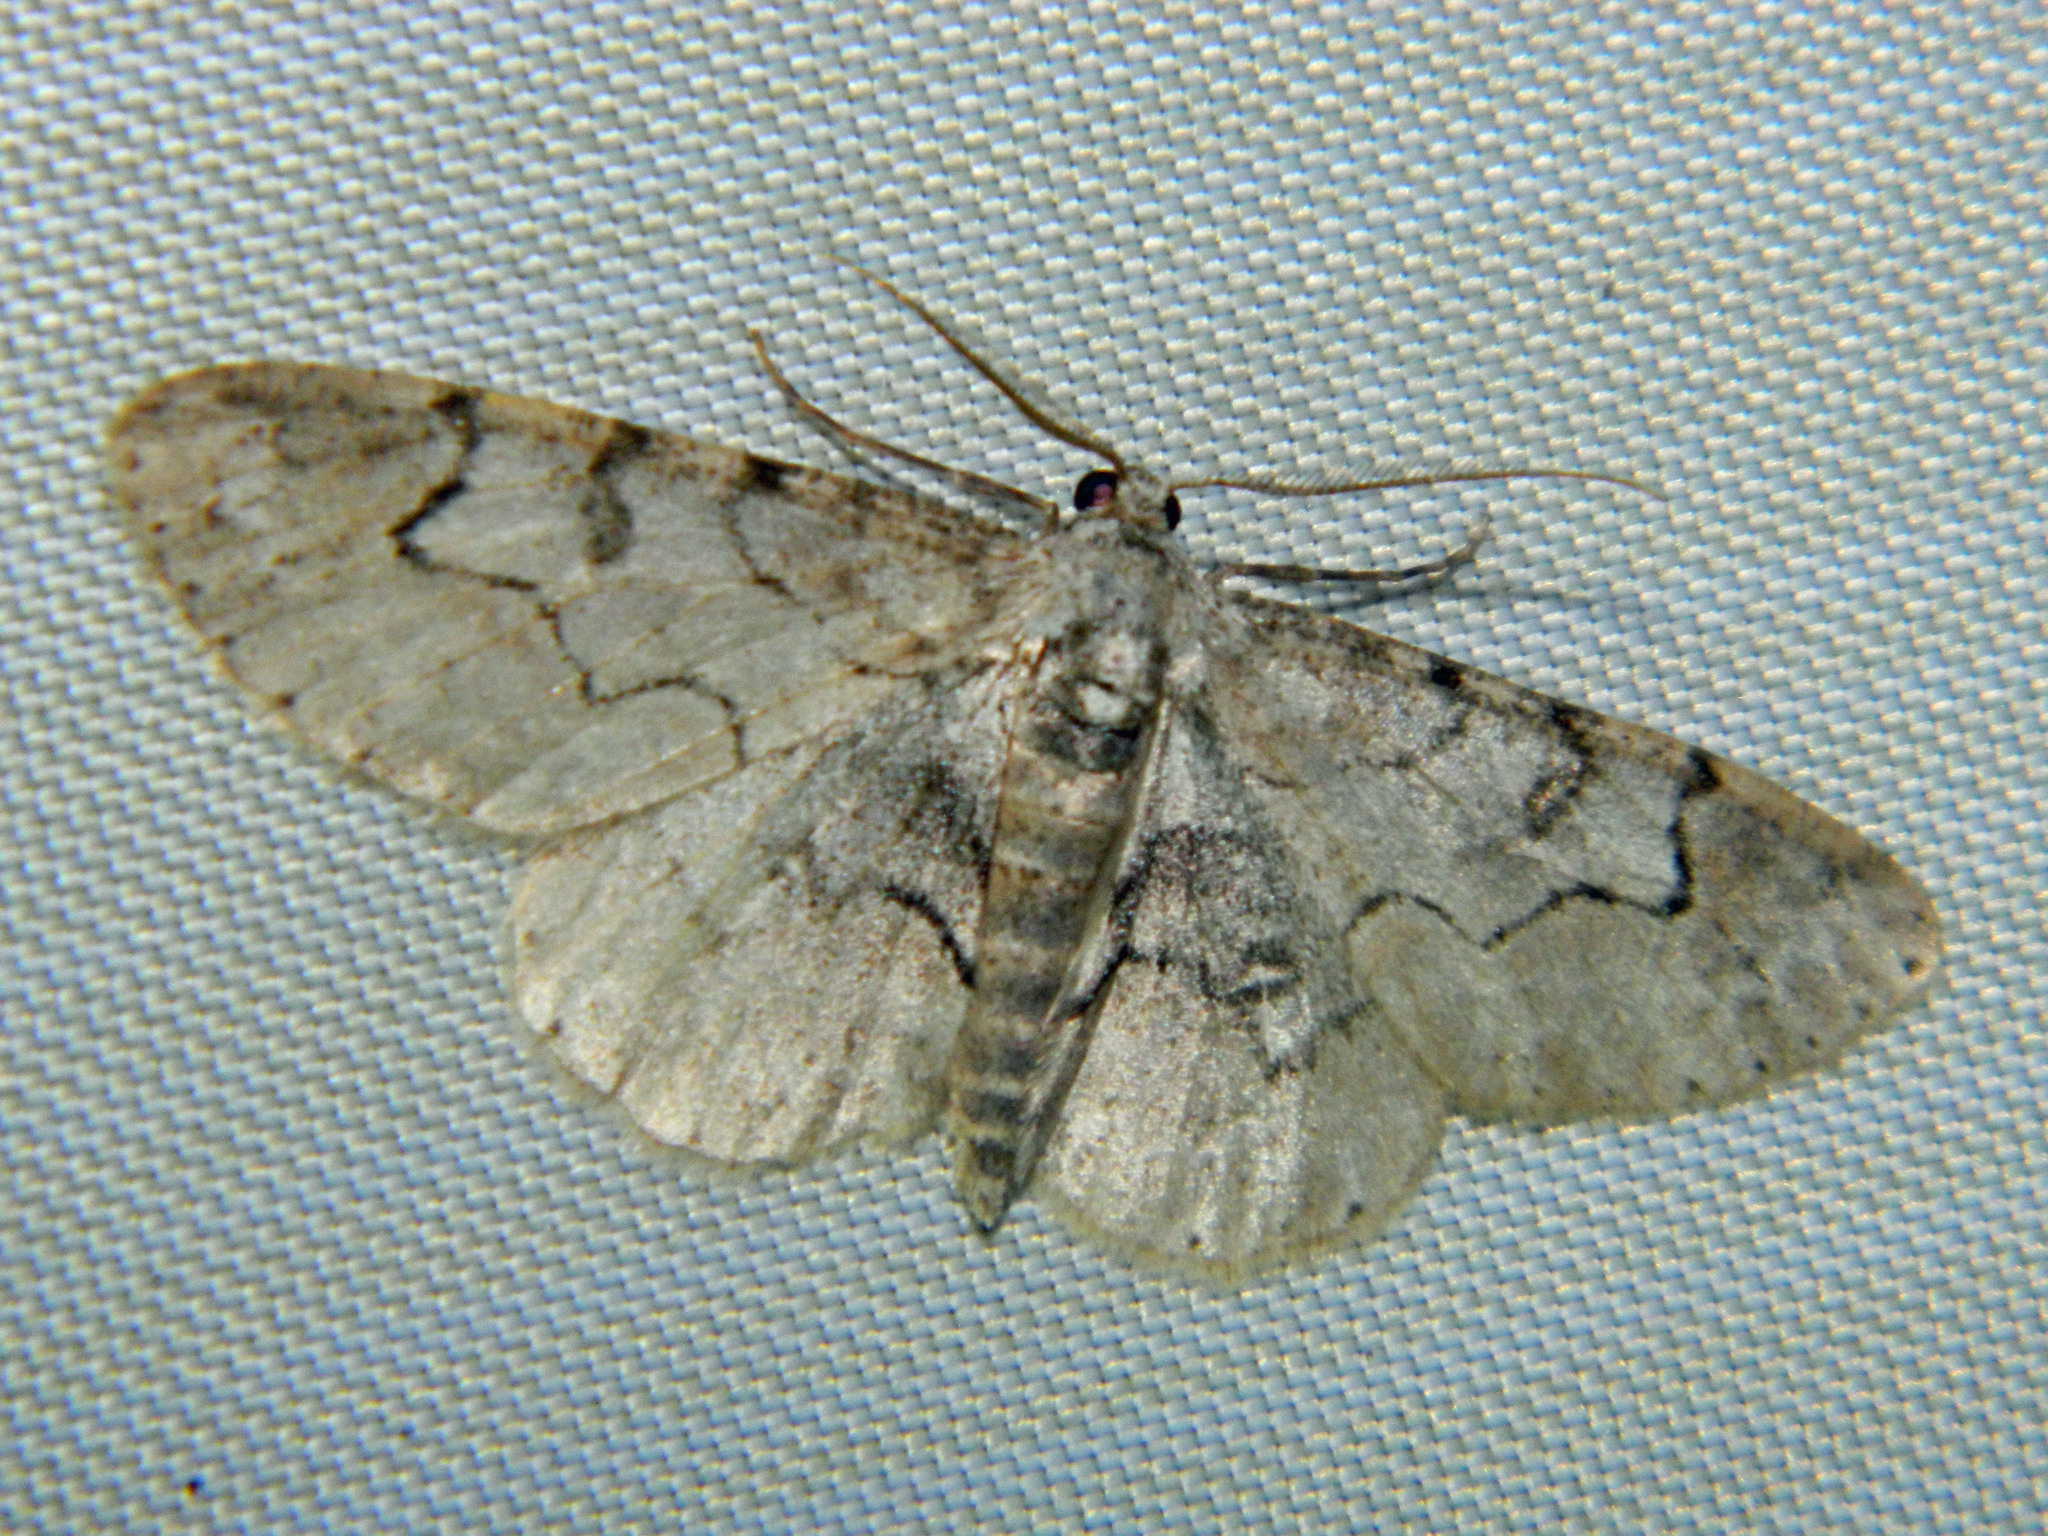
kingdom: Animalia
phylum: Arthropoda
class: Insecta
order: Lepidoptera
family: Geometridae
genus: Iridopsis
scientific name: Iridopsis larvaria
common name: Bent-line gray
